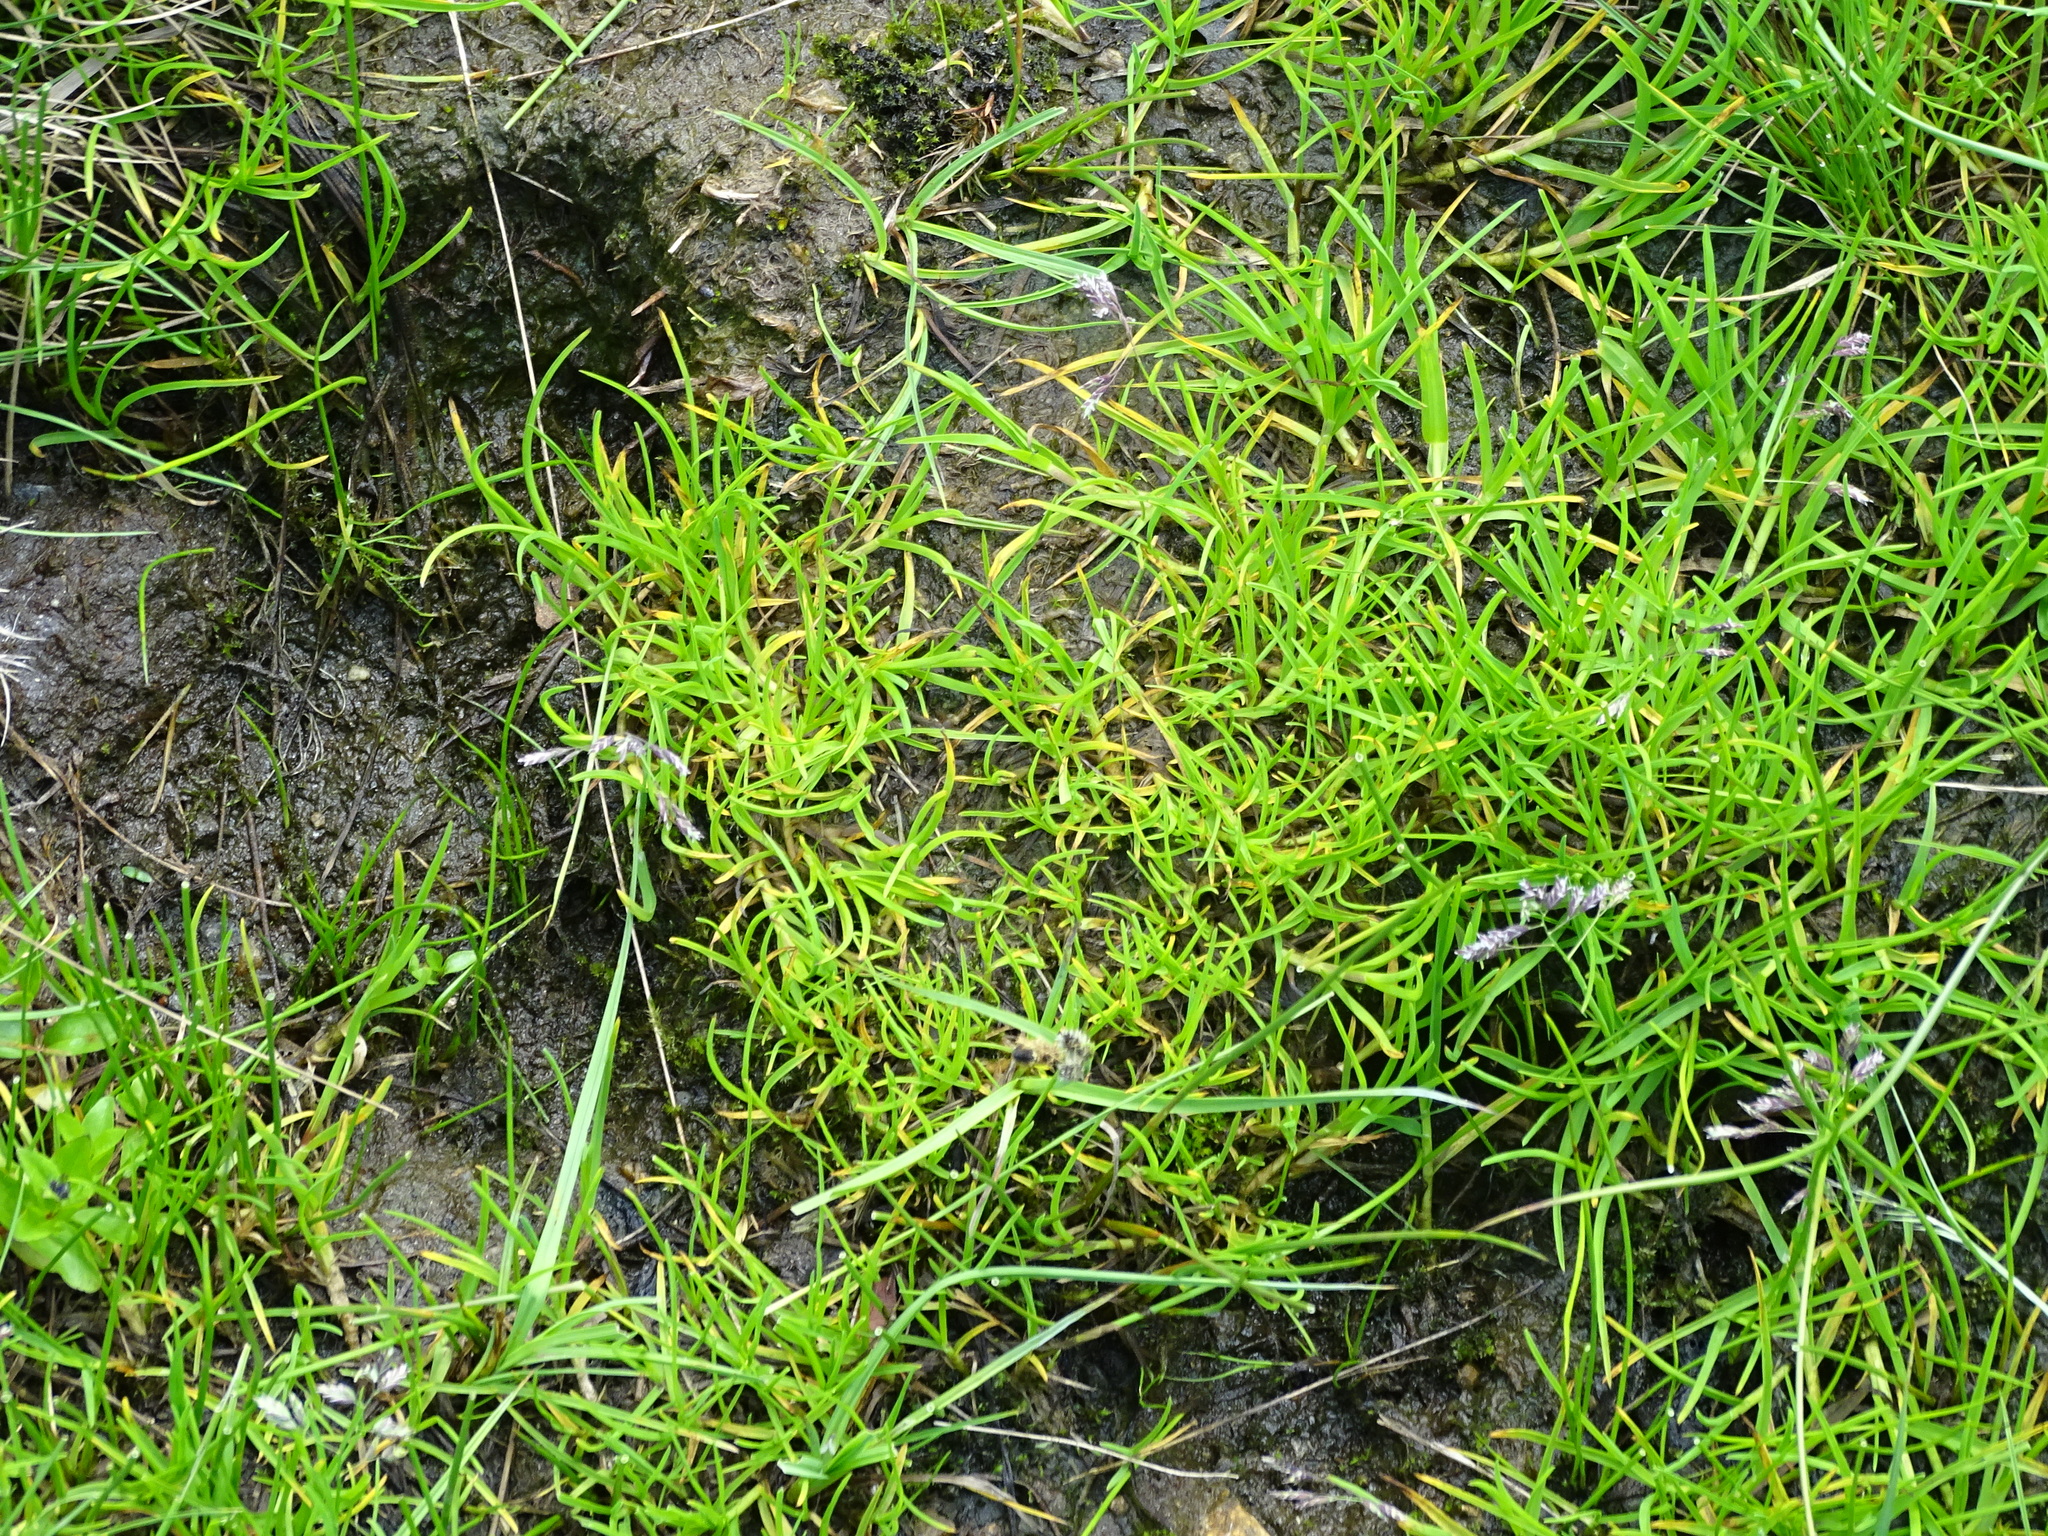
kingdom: Plantae
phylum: Tracheophyta
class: Liliopsida
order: Poales
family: Poaceae
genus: Poa
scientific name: Poa supina
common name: Supina bluegrass
